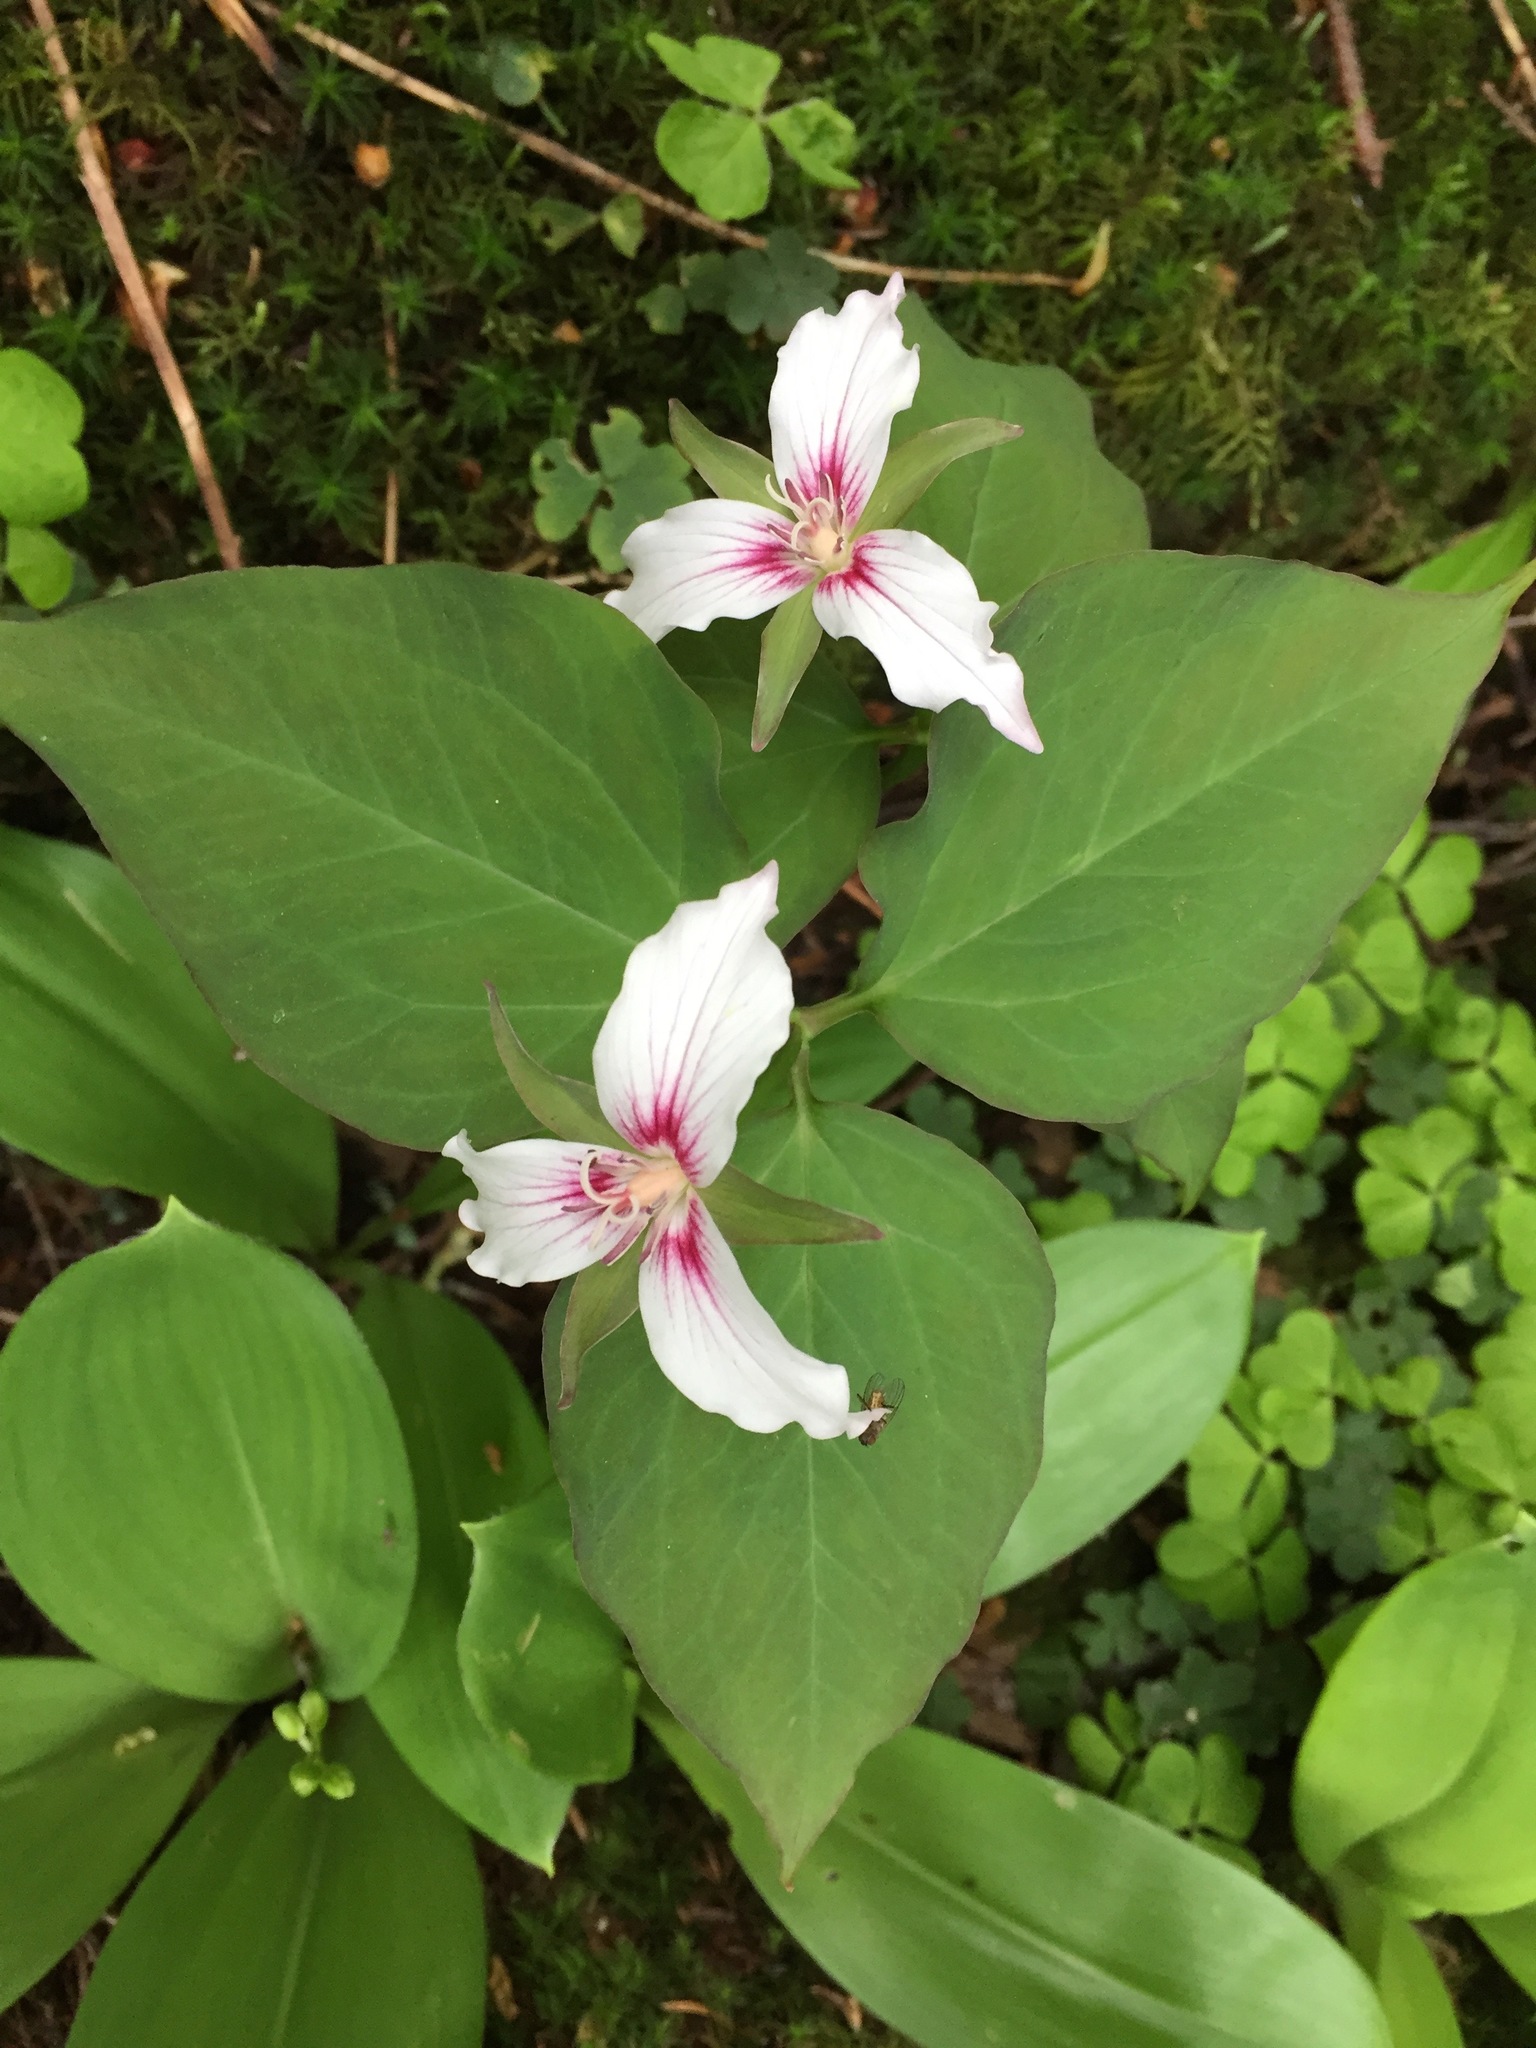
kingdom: Plantae
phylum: Tracheophyta
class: Liliopsida
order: Liliales
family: Melanthiaceae
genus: Trillium
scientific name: Trillium undulatum
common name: Paint trillium
